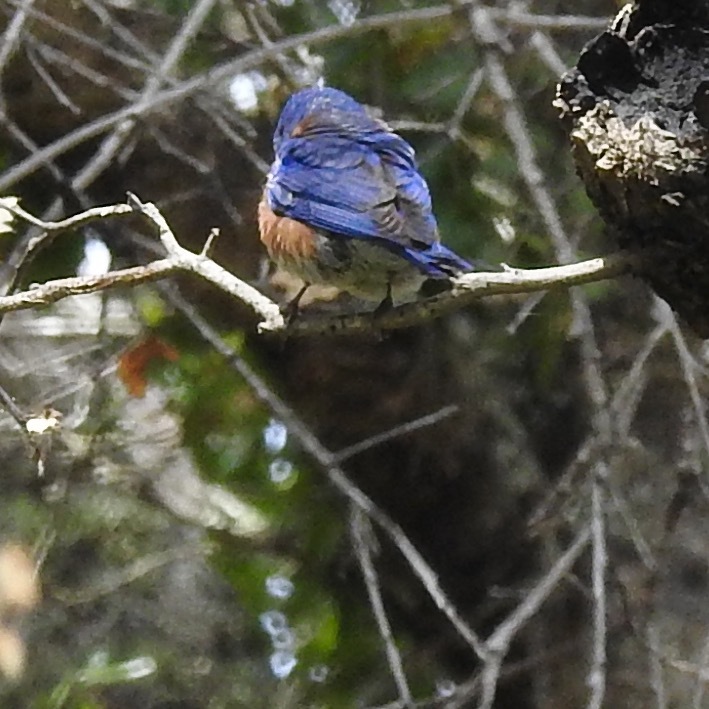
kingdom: Animalia
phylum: Chordata
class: Aves
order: Passeriformes
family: Turdidae
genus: Sialia
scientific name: Sialia mexicana
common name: Western bluebird
